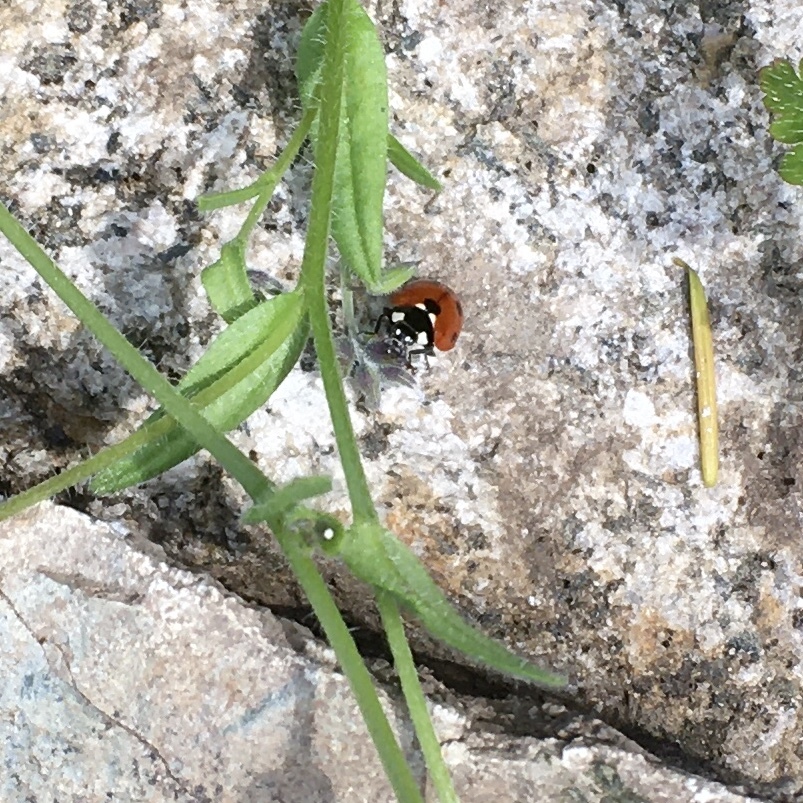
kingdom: Animalia
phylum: Arthropoda
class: Insecta
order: Coleoptera
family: Coccinellidae
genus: Coccinella
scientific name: Coccinella septempunctata
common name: Sevenspotted lady beetle
